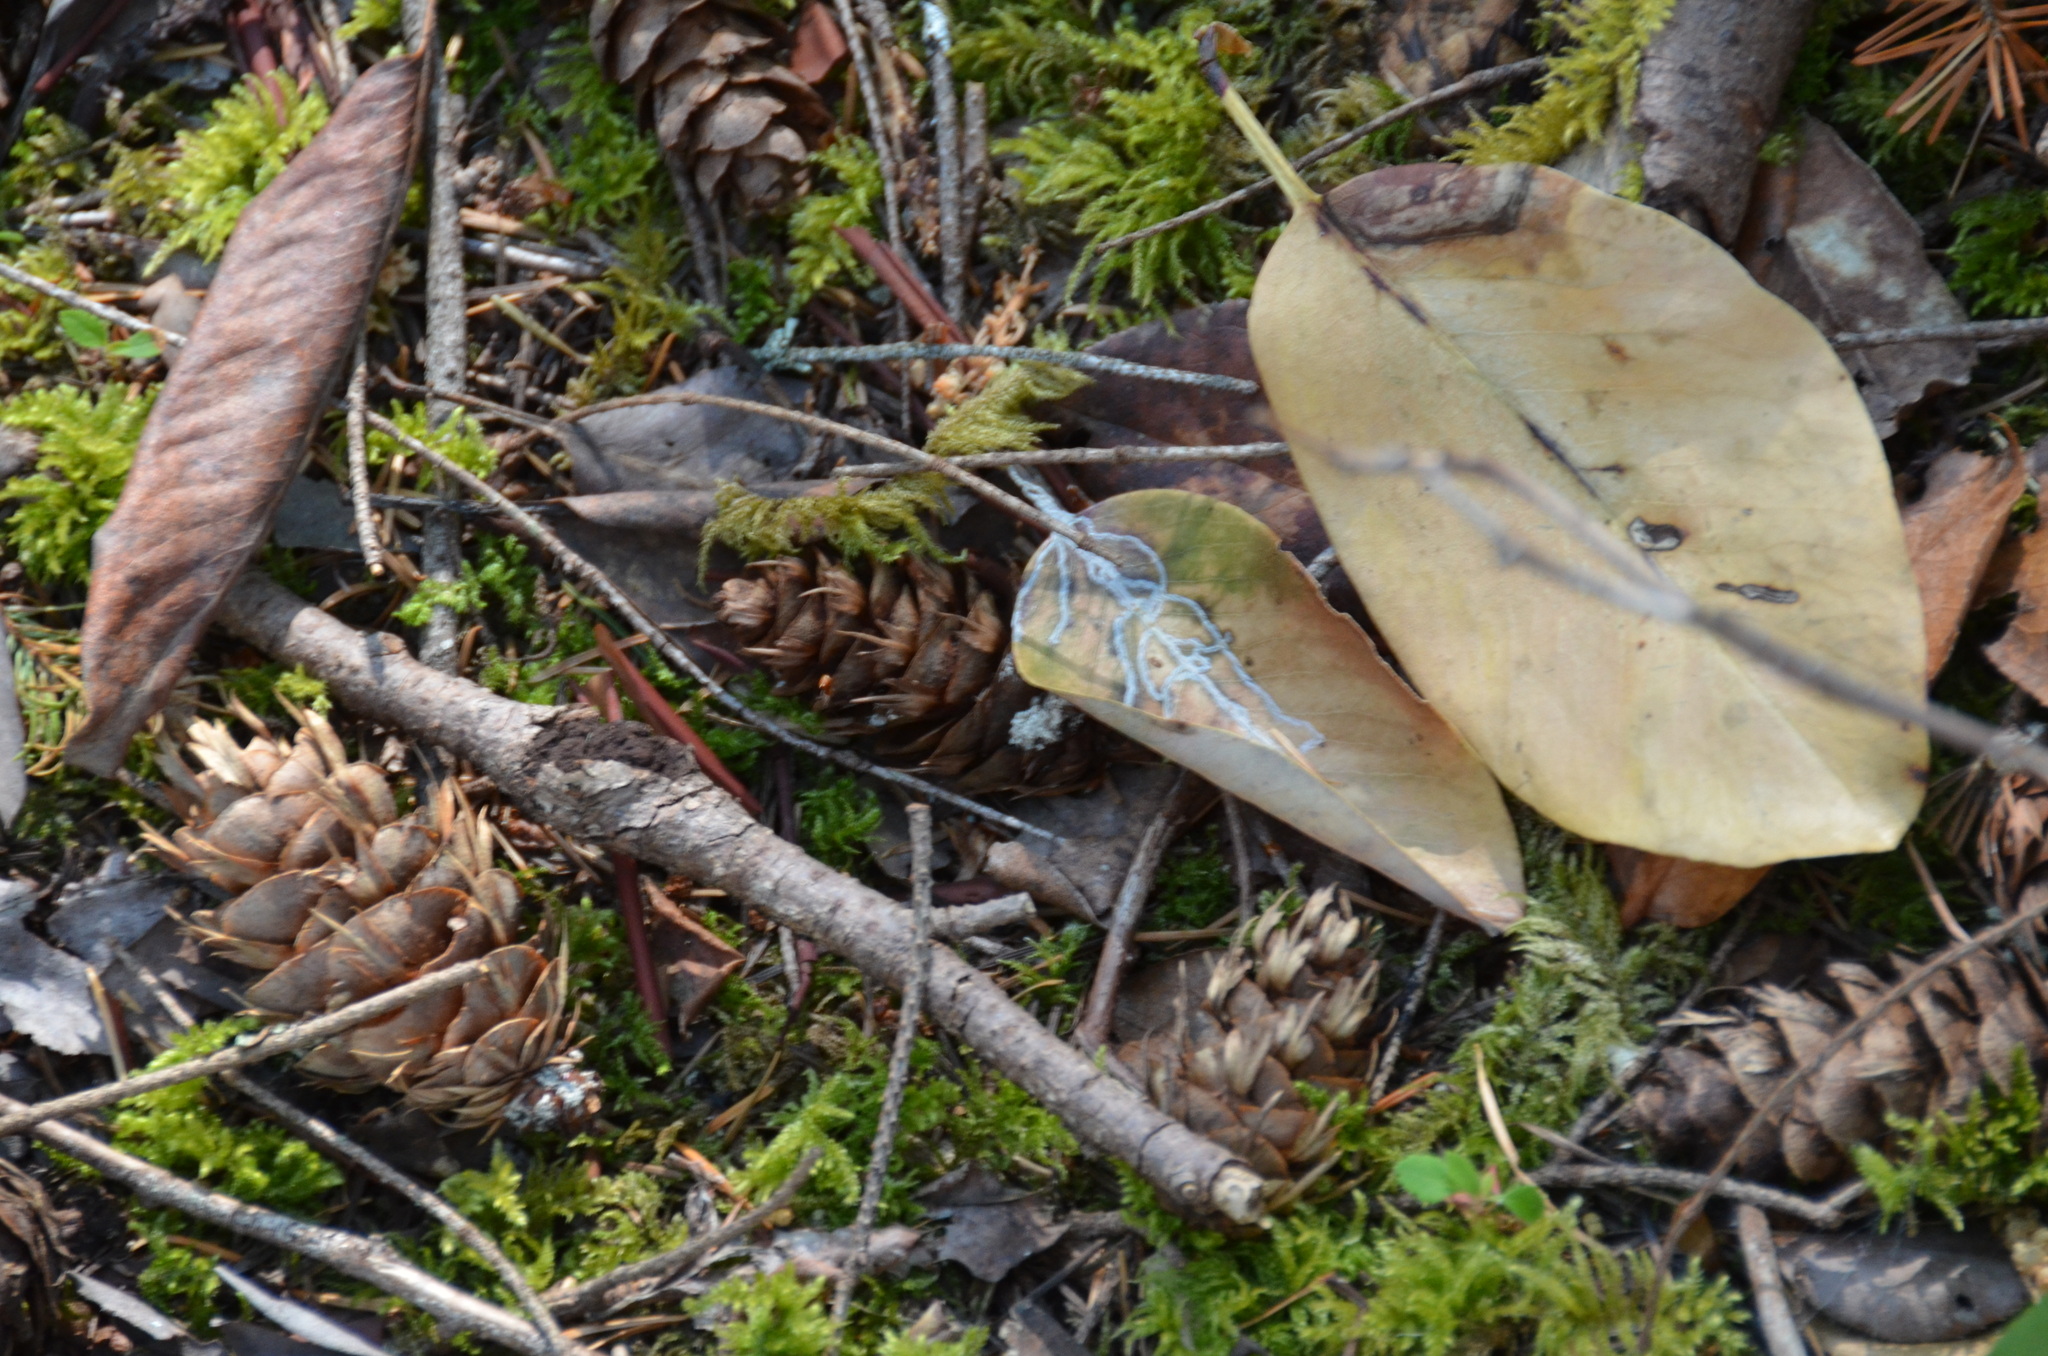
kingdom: Animalia
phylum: Arthropoda
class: Insecta
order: Lepidoptera
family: Gracillariidae
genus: Marmara
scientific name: Marmara arbutiella
